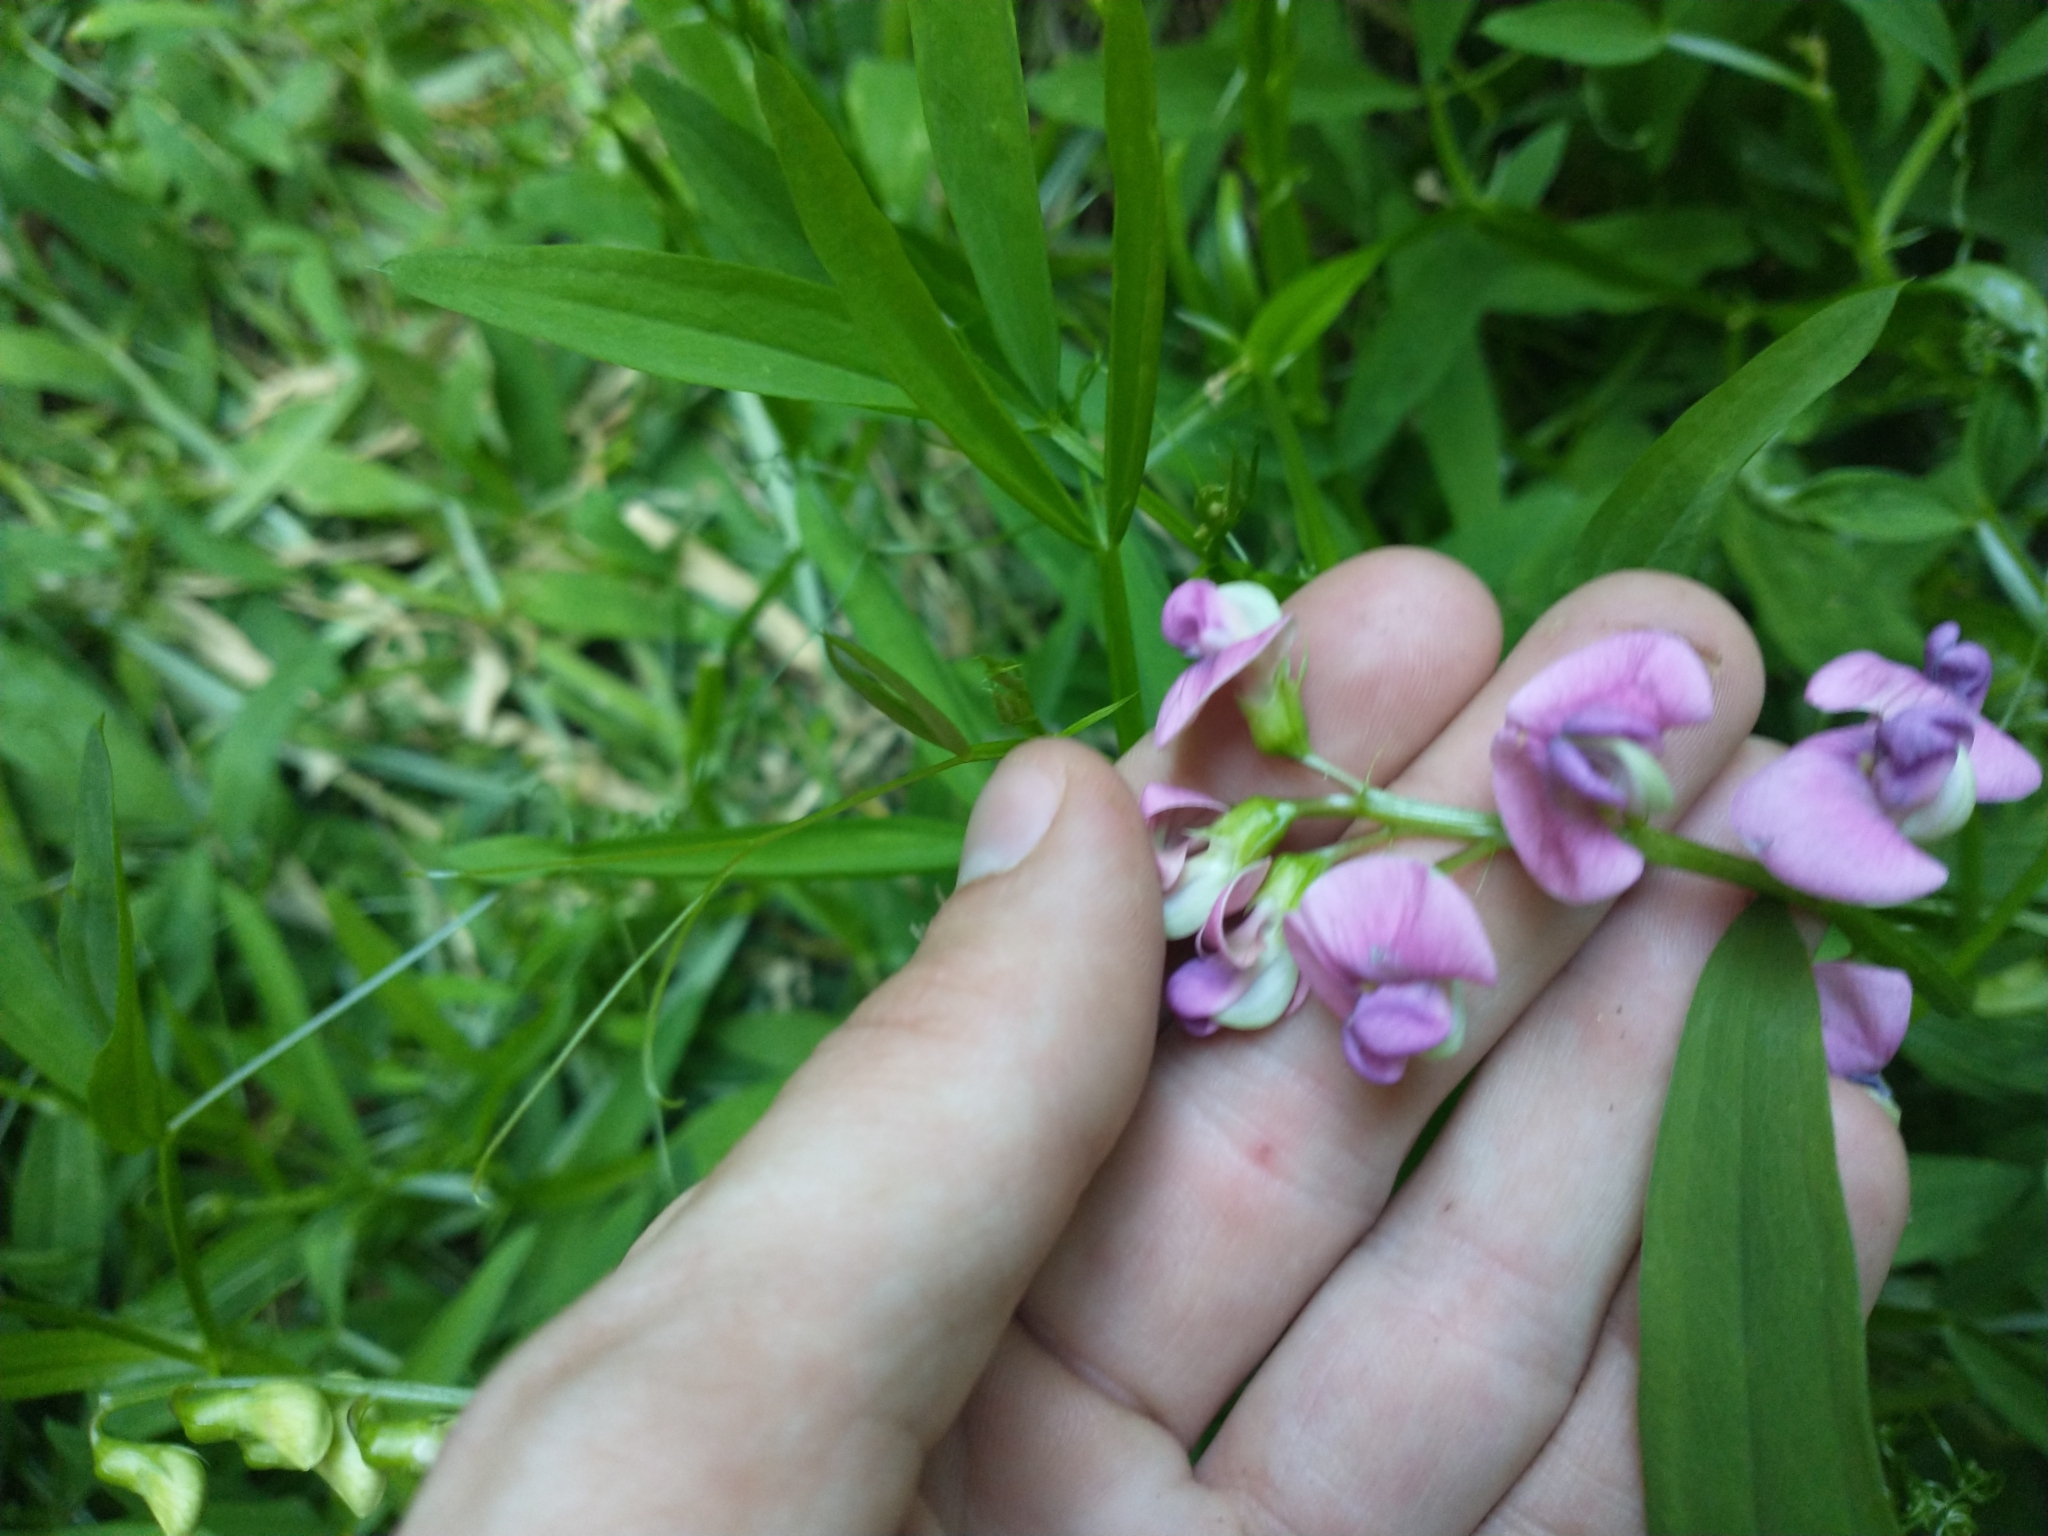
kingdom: Plantae
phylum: Tracheophyta
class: Magnoliopsida
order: Fabales
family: Fabaceae
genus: Lathyrus
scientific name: Lathyrus sylvestris
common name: Flat pea
